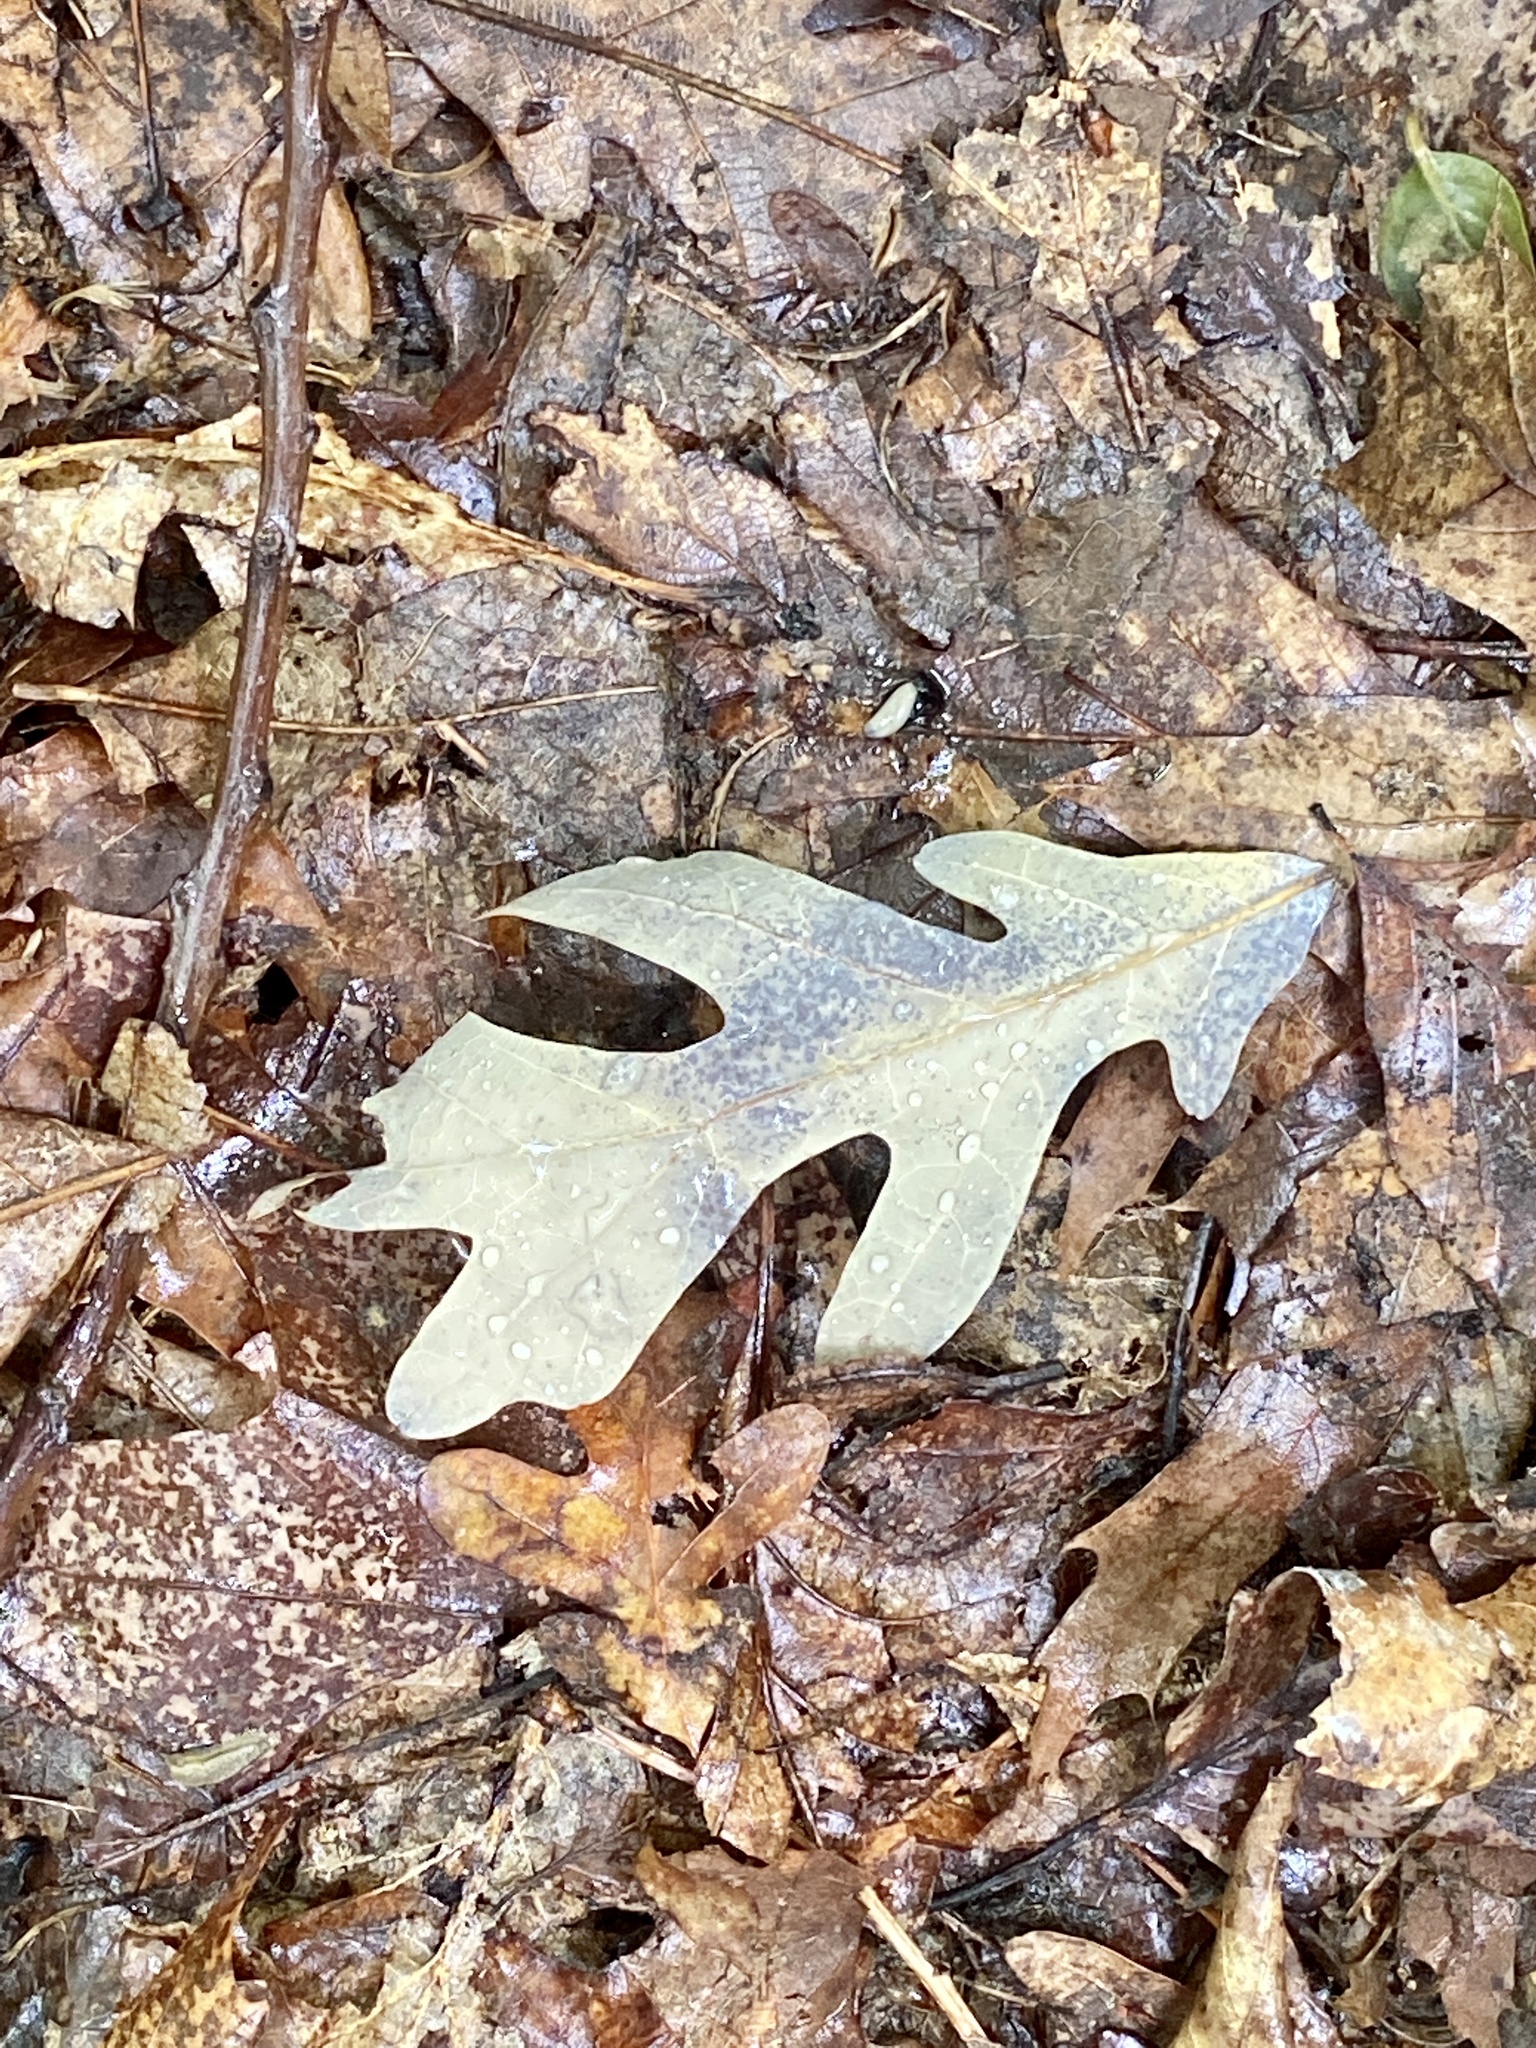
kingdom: Plantae
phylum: Tracheophyta
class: Magnoliopsida
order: Fagales
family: Fagaceae
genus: Quercus
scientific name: Quercus alba
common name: White oak
